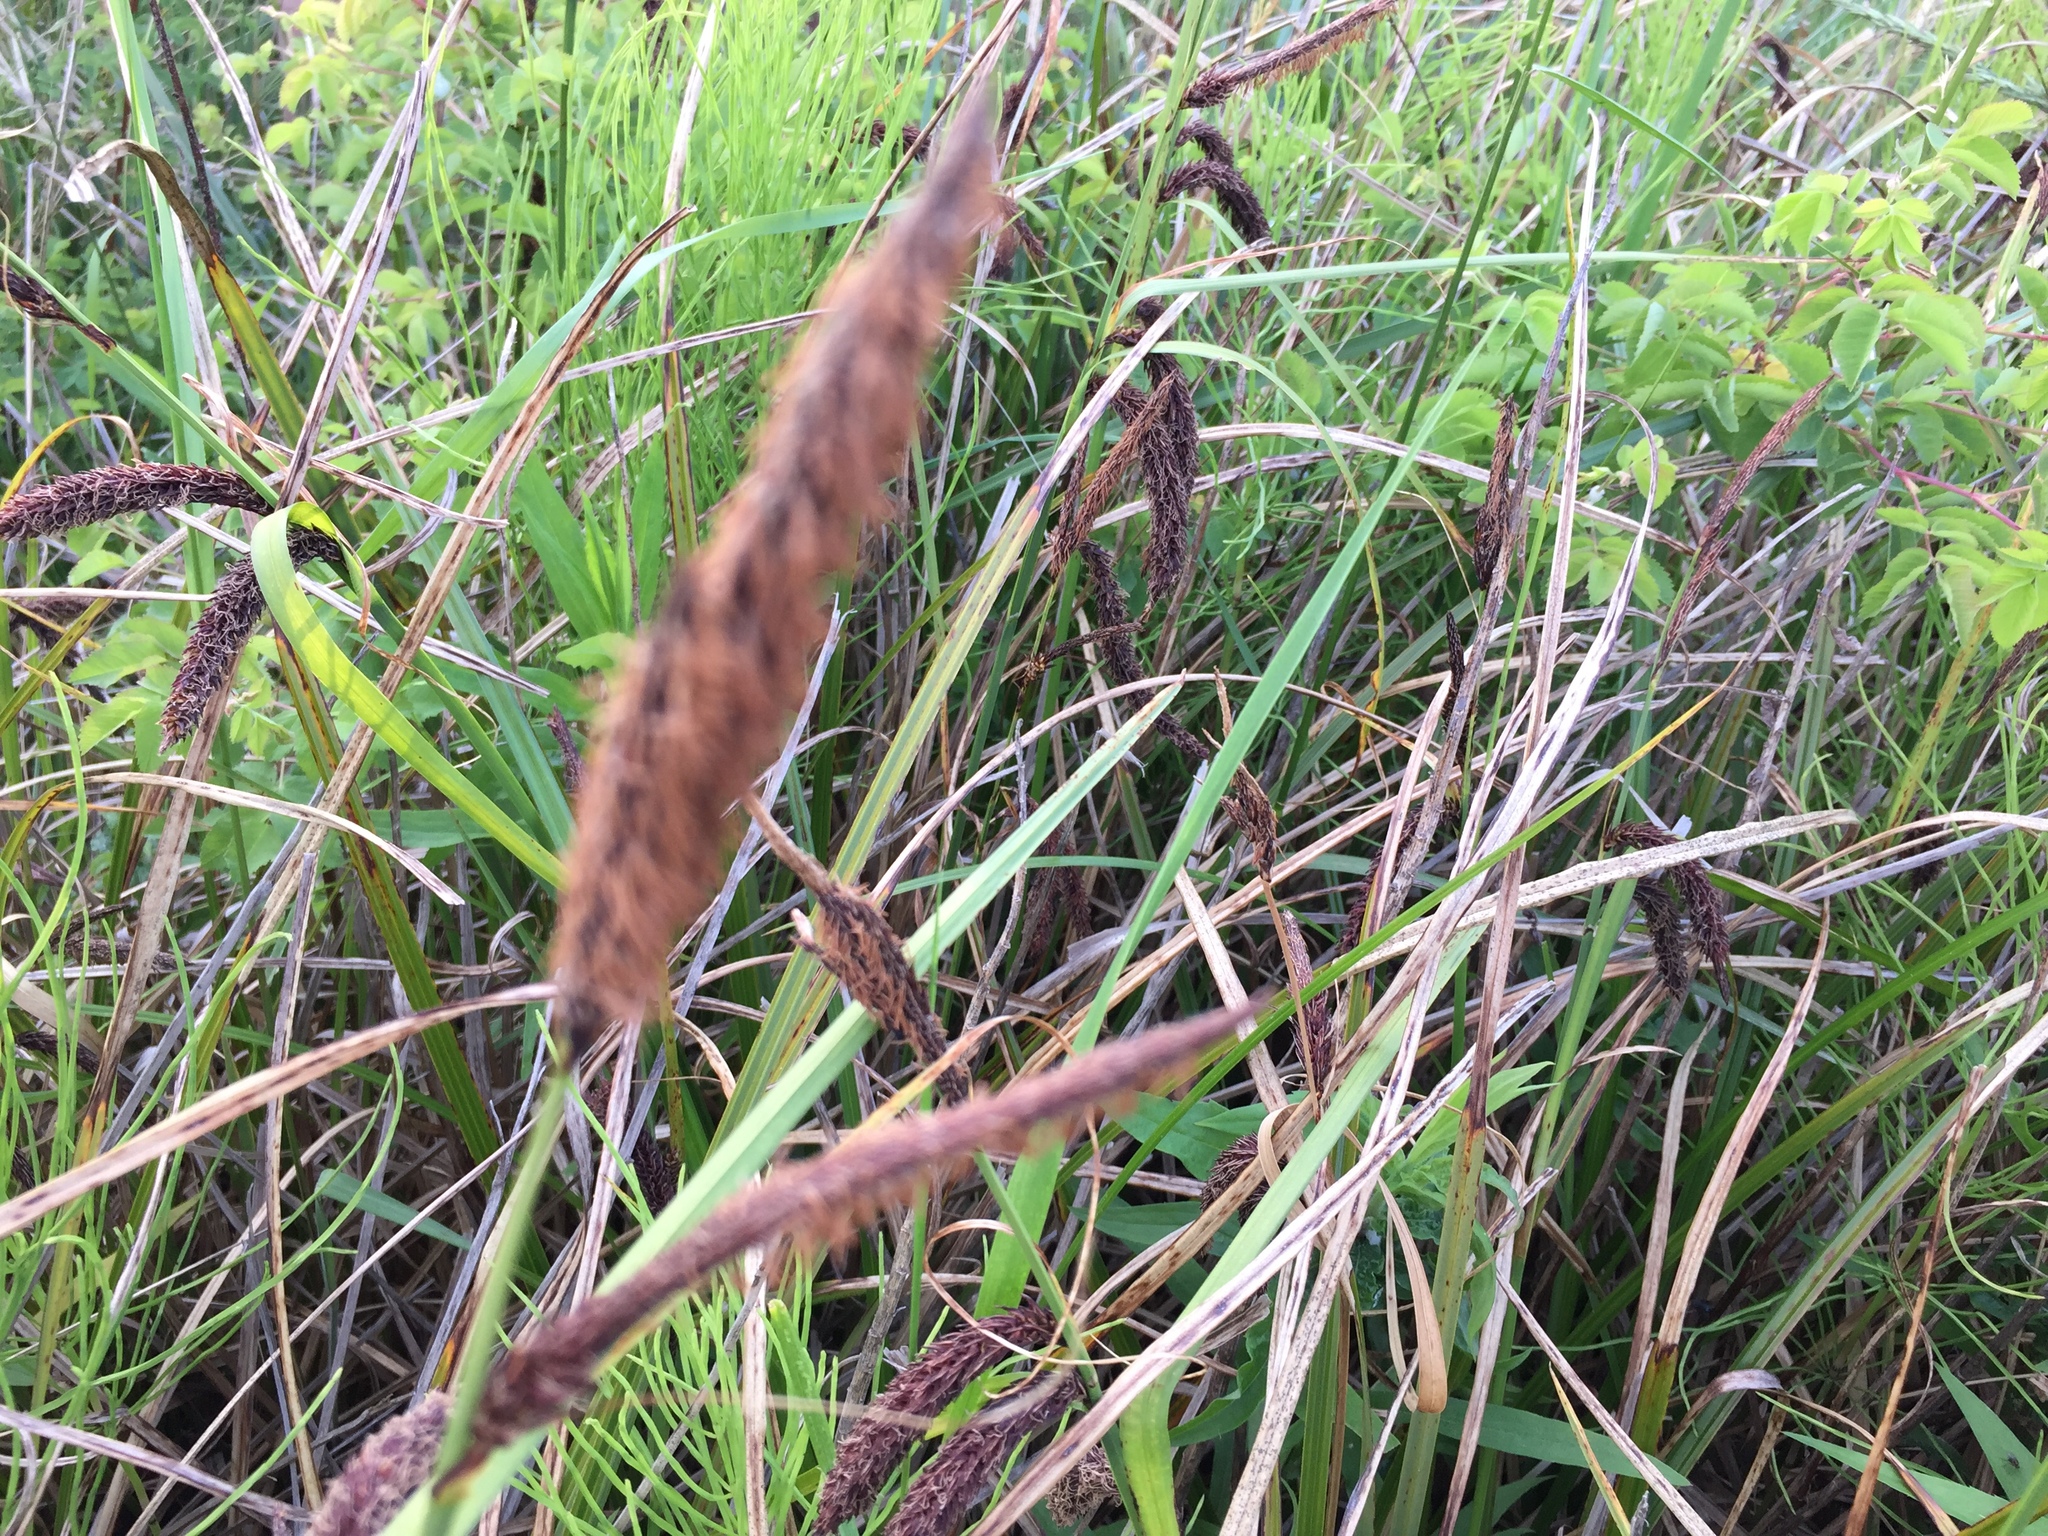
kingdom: Plantae
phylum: Tracheophyta
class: Liliopsida
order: Poales
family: Cyperaceae
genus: Carex
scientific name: Carex obnupta
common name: Slough sedge
